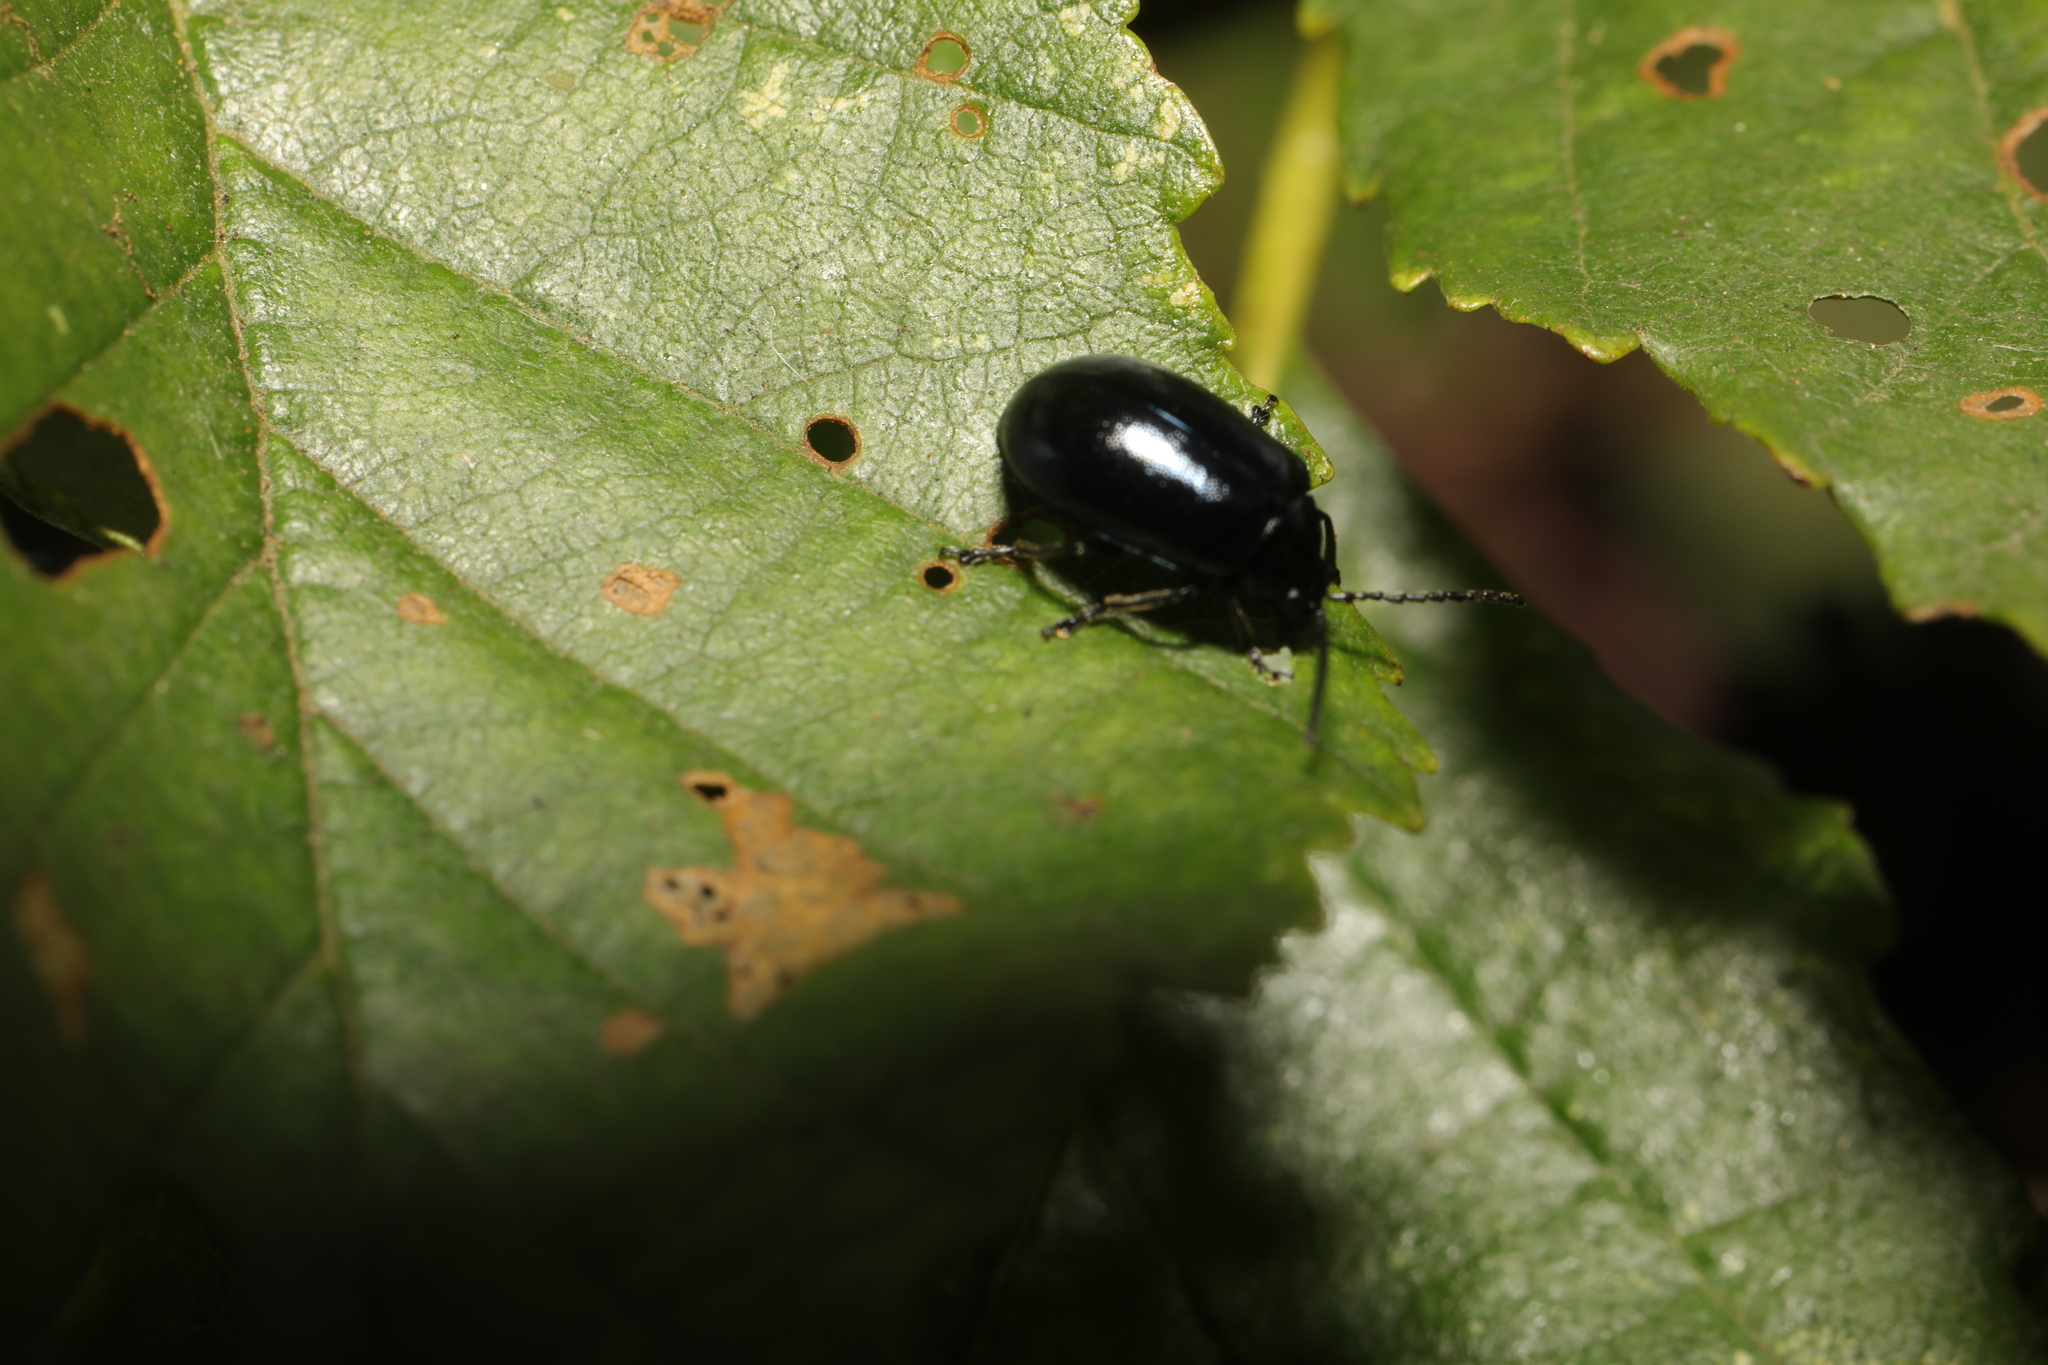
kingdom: Animalia
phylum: Arthropoda
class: Insecta
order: Coleoptera
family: Chrysomelidae
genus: Agelastica
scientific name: Agelastica alni
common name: Alder leaf beetle
